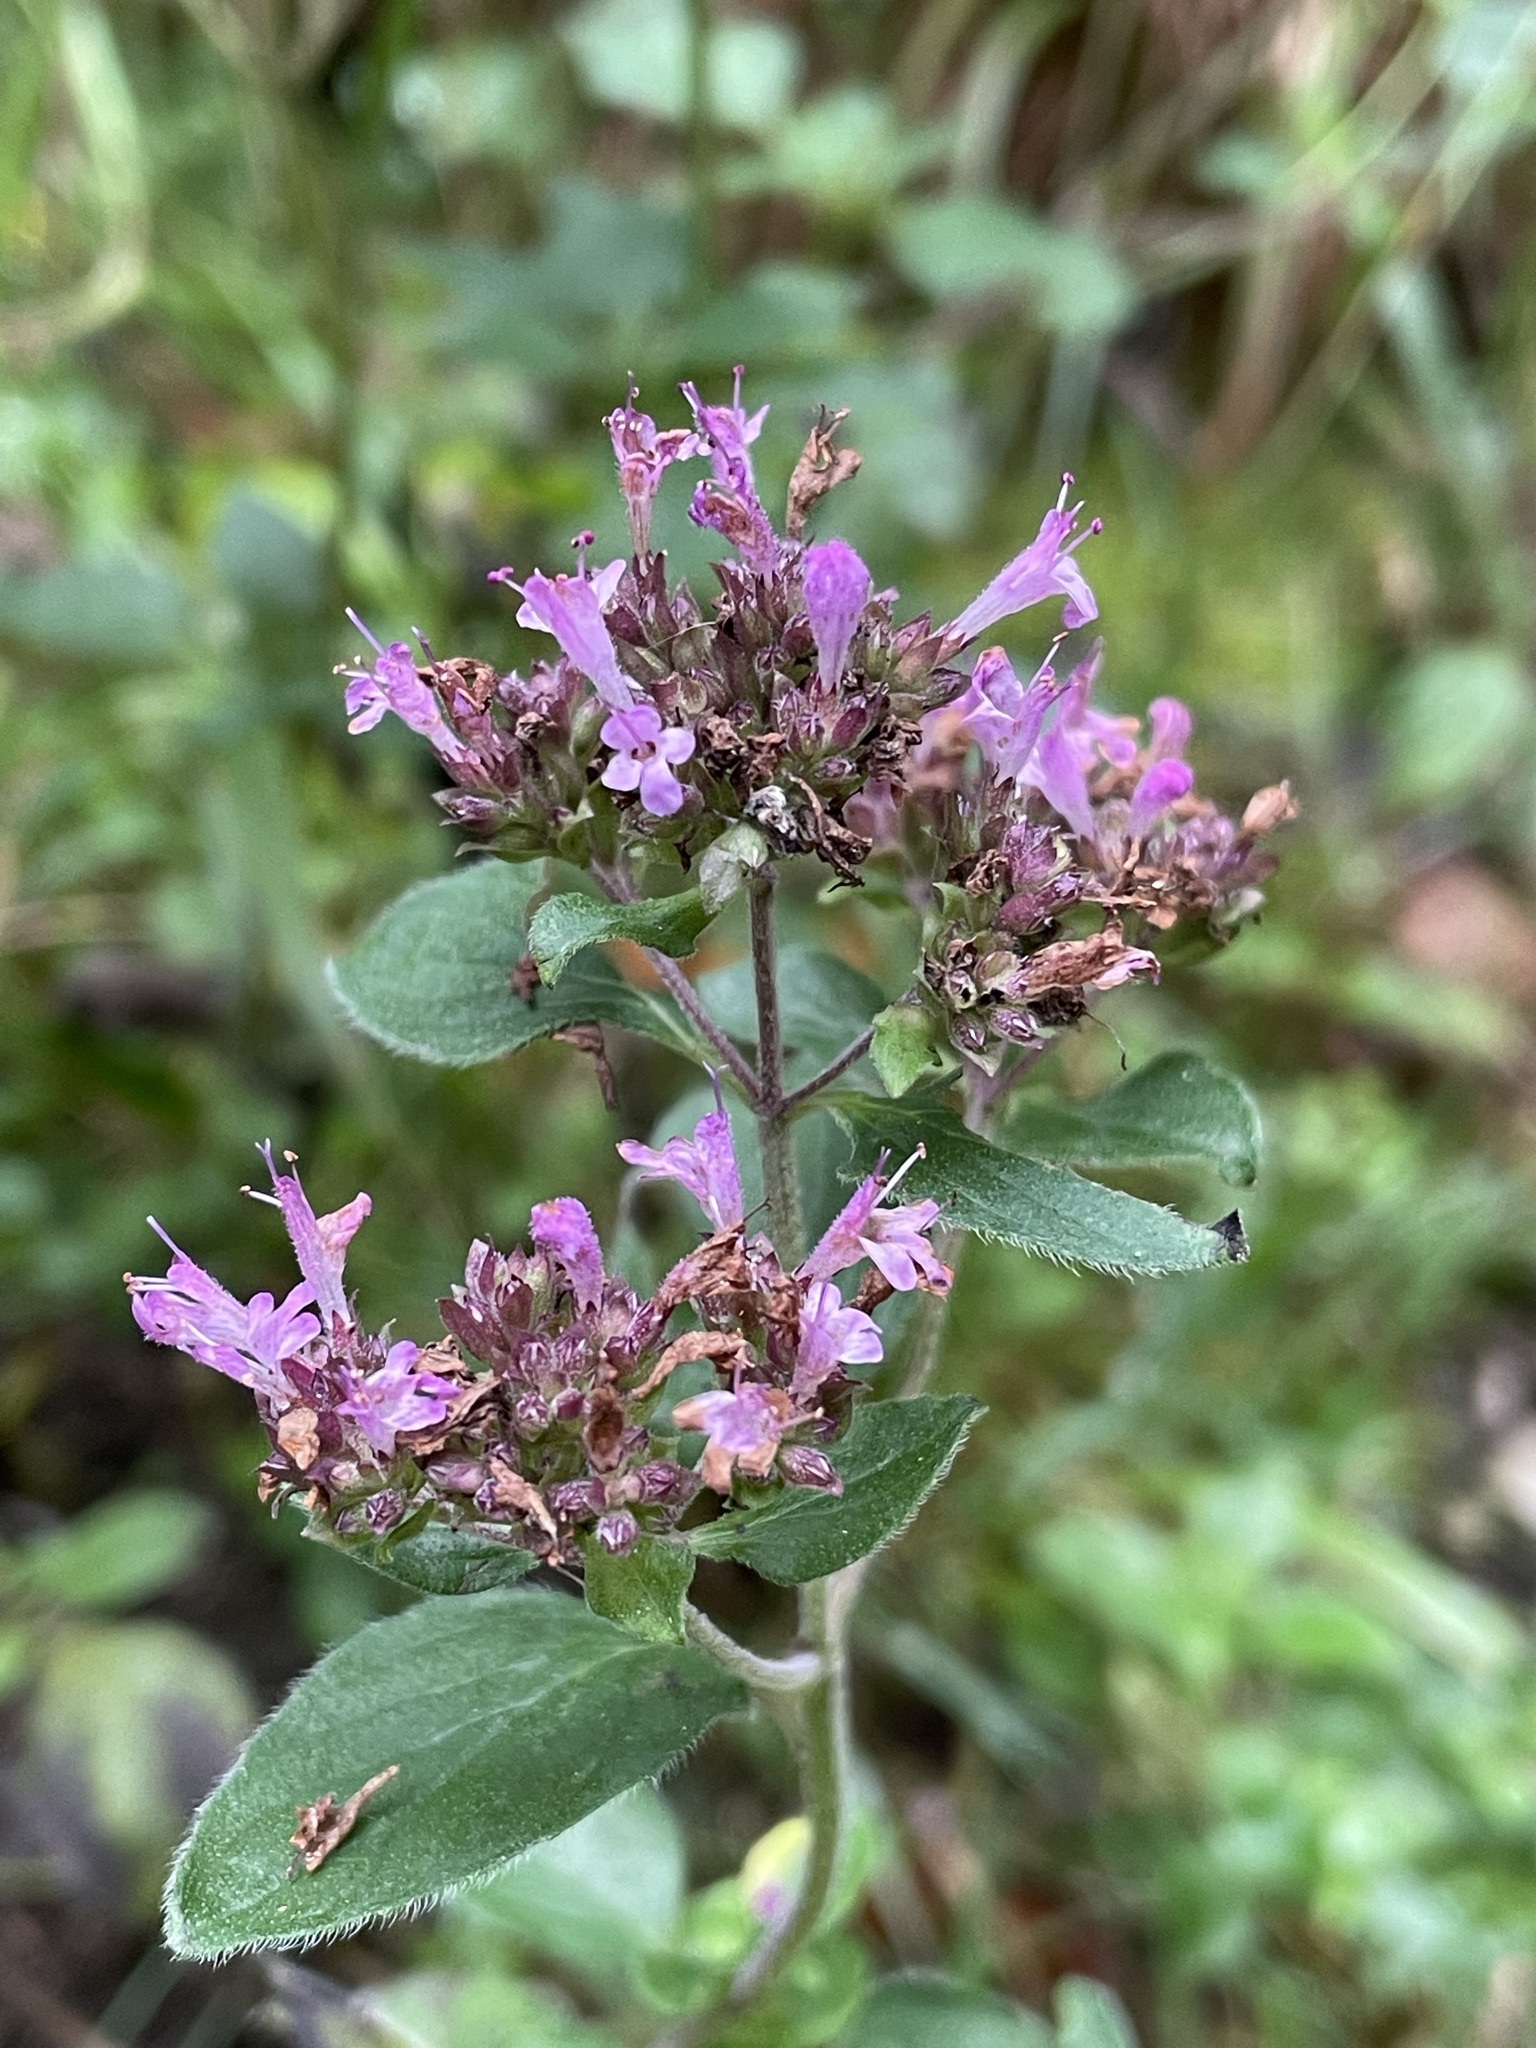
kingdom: Plantae
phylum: Tracheophyta
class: Magnoliopsida
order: Lamiales
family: Lamiaceae
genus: Origanum
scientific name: Origanum vulgare
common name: Wild marjoram
